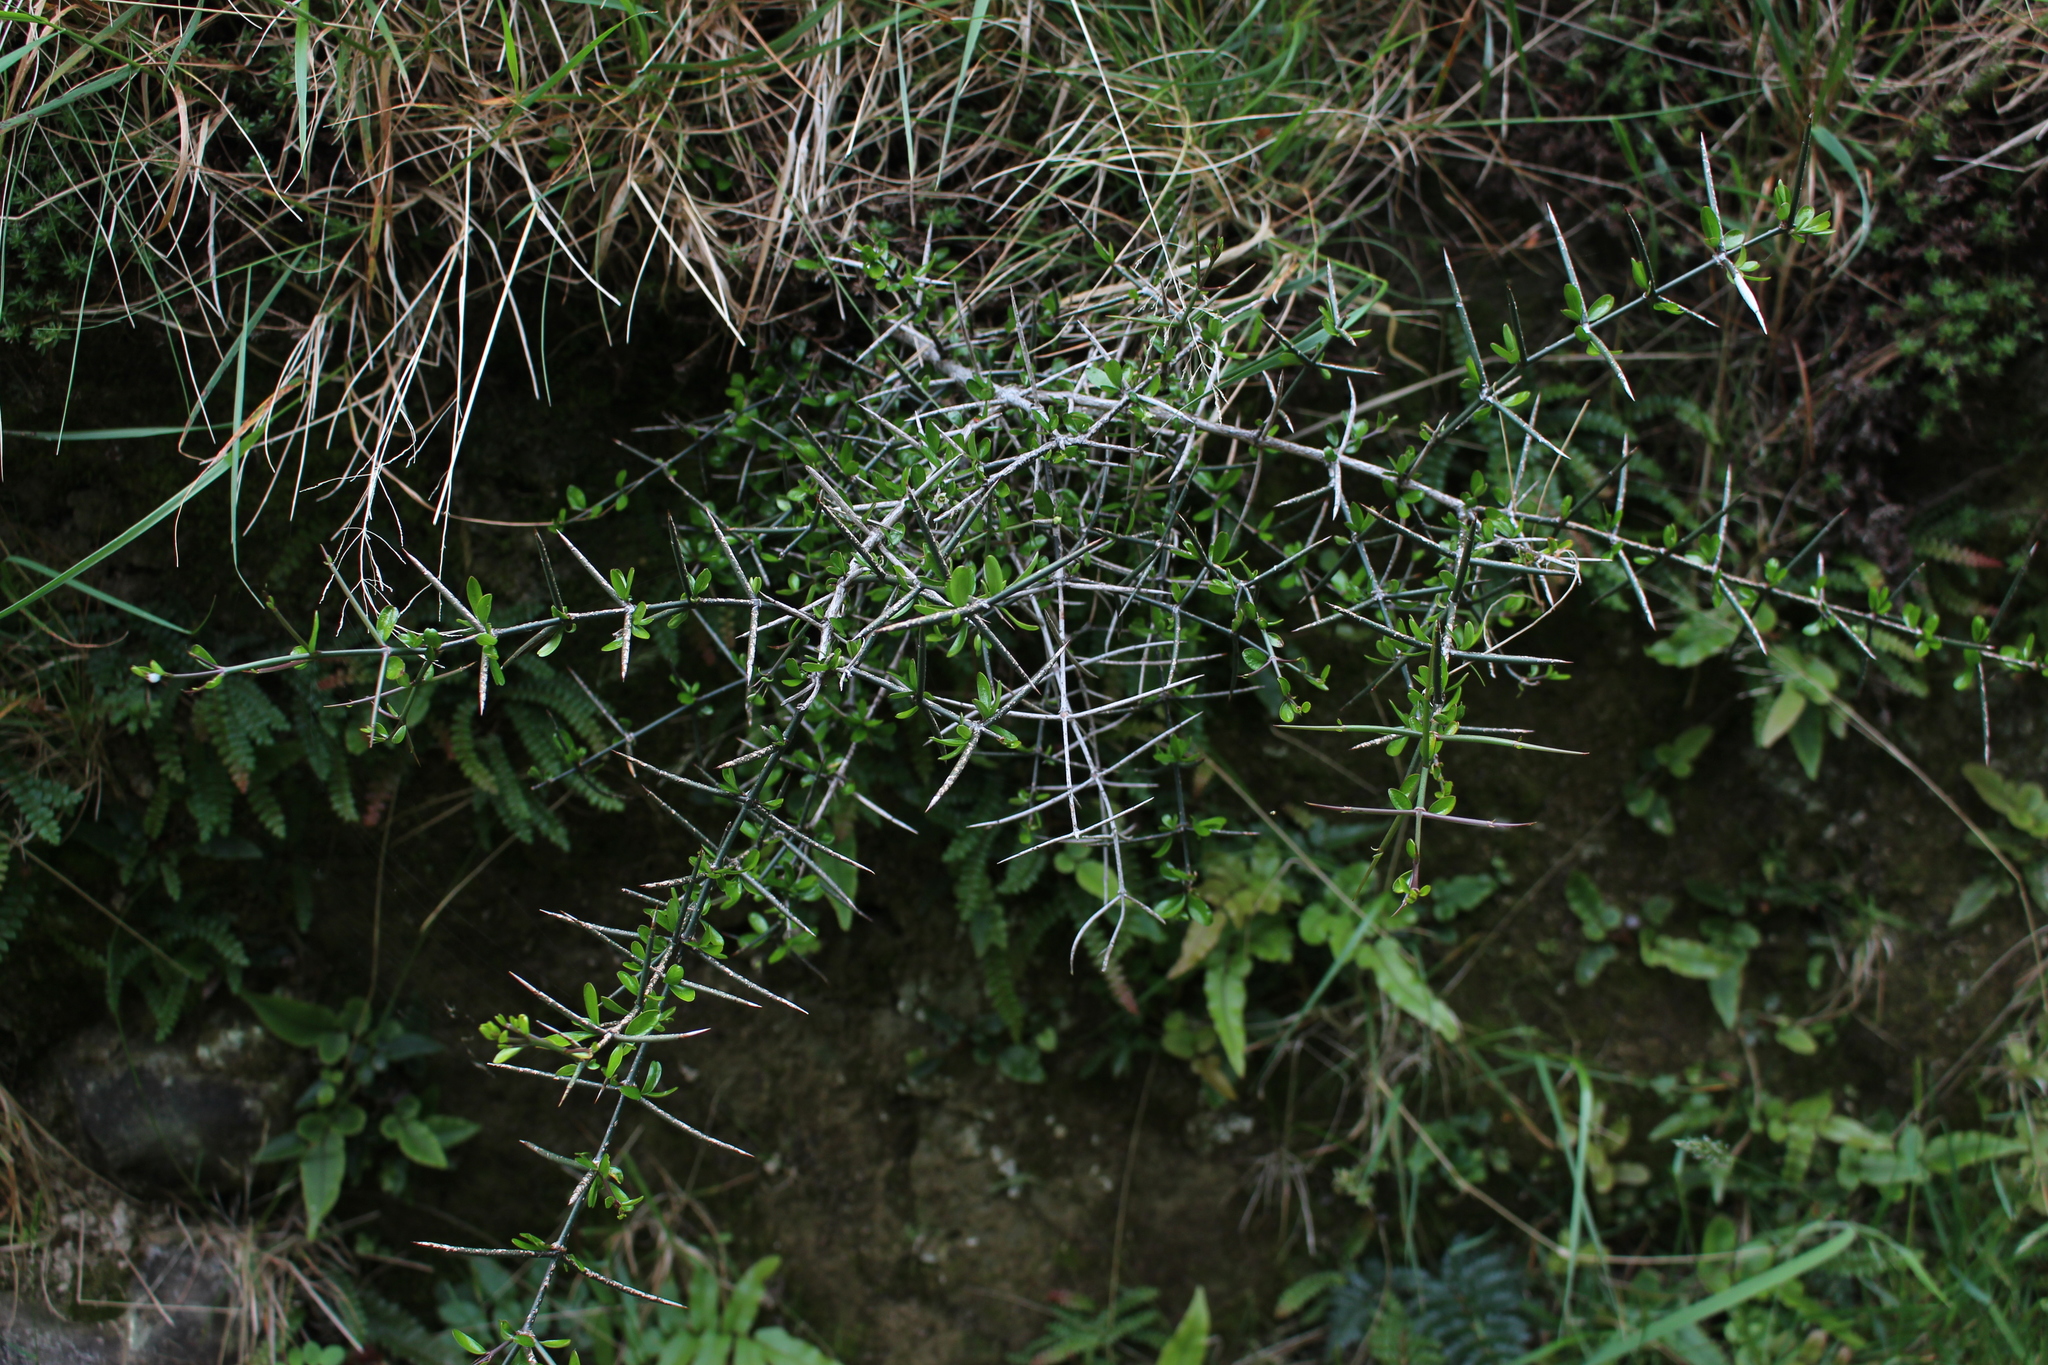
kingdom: Plantae
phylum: Tracheophyta
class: Magnoliopsida
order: Rosales
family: Rhamnaceae
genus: Discaria
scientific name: Discaria toumatou
